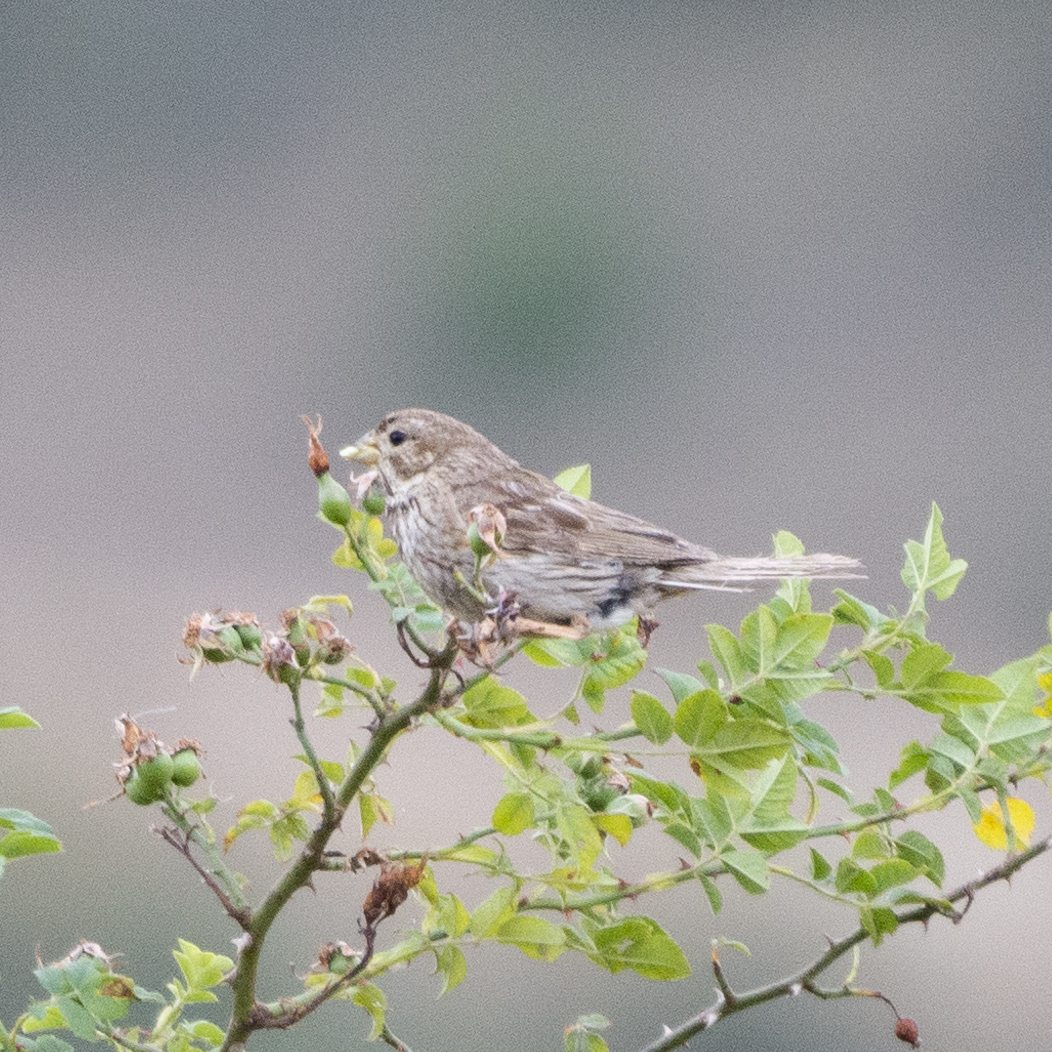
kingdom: Animalia
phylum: Chordata
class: Aves
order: Passeriformes
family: Emberizidae
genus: Emberiza
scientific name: Emberiza calandra
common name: Corn bunting
